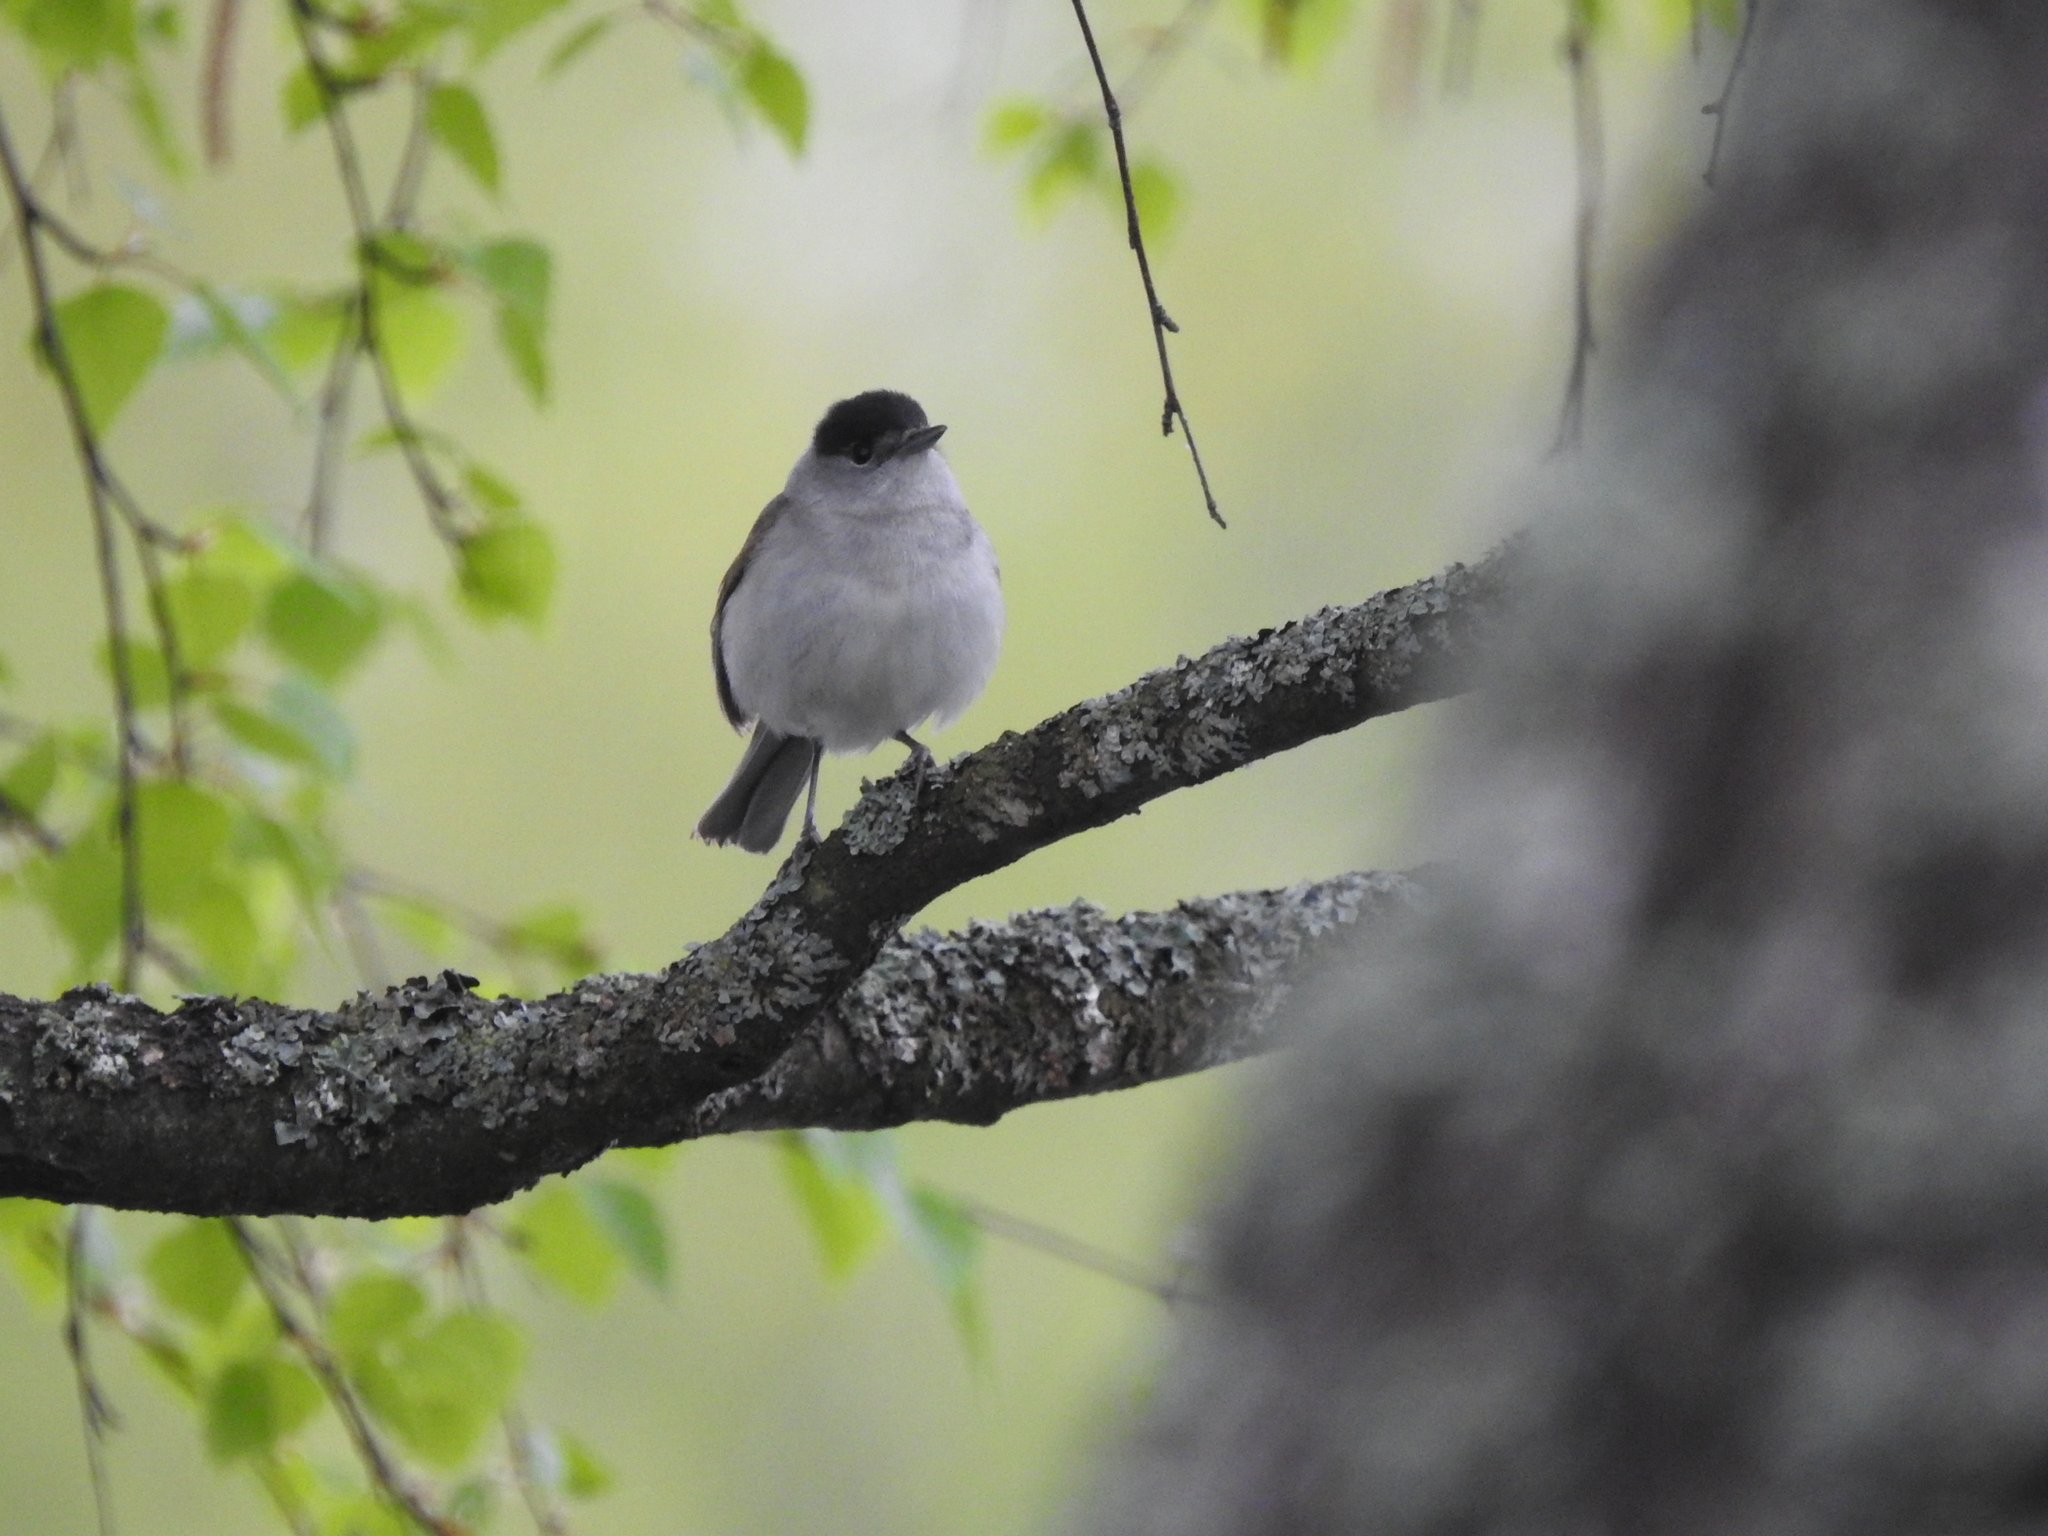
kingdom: Animalia
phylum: Chordata
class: Aves
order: Passeriformes
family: Sylviidae
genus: Sylvia
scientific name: Sylvia atricapilla
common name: Eurasian blackcap
